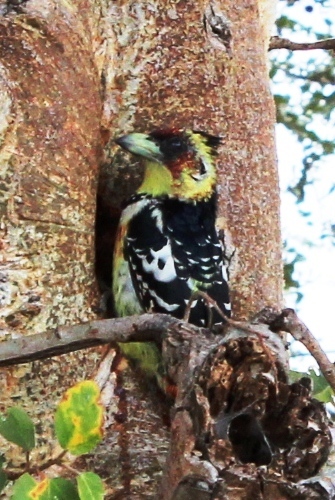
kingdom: Animalia
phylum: Chordata
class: Aves
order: Piciformes
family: Lybiidae
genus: Trachyphonus
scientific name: Trachyphonus vaillantii
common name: Crested barbet
